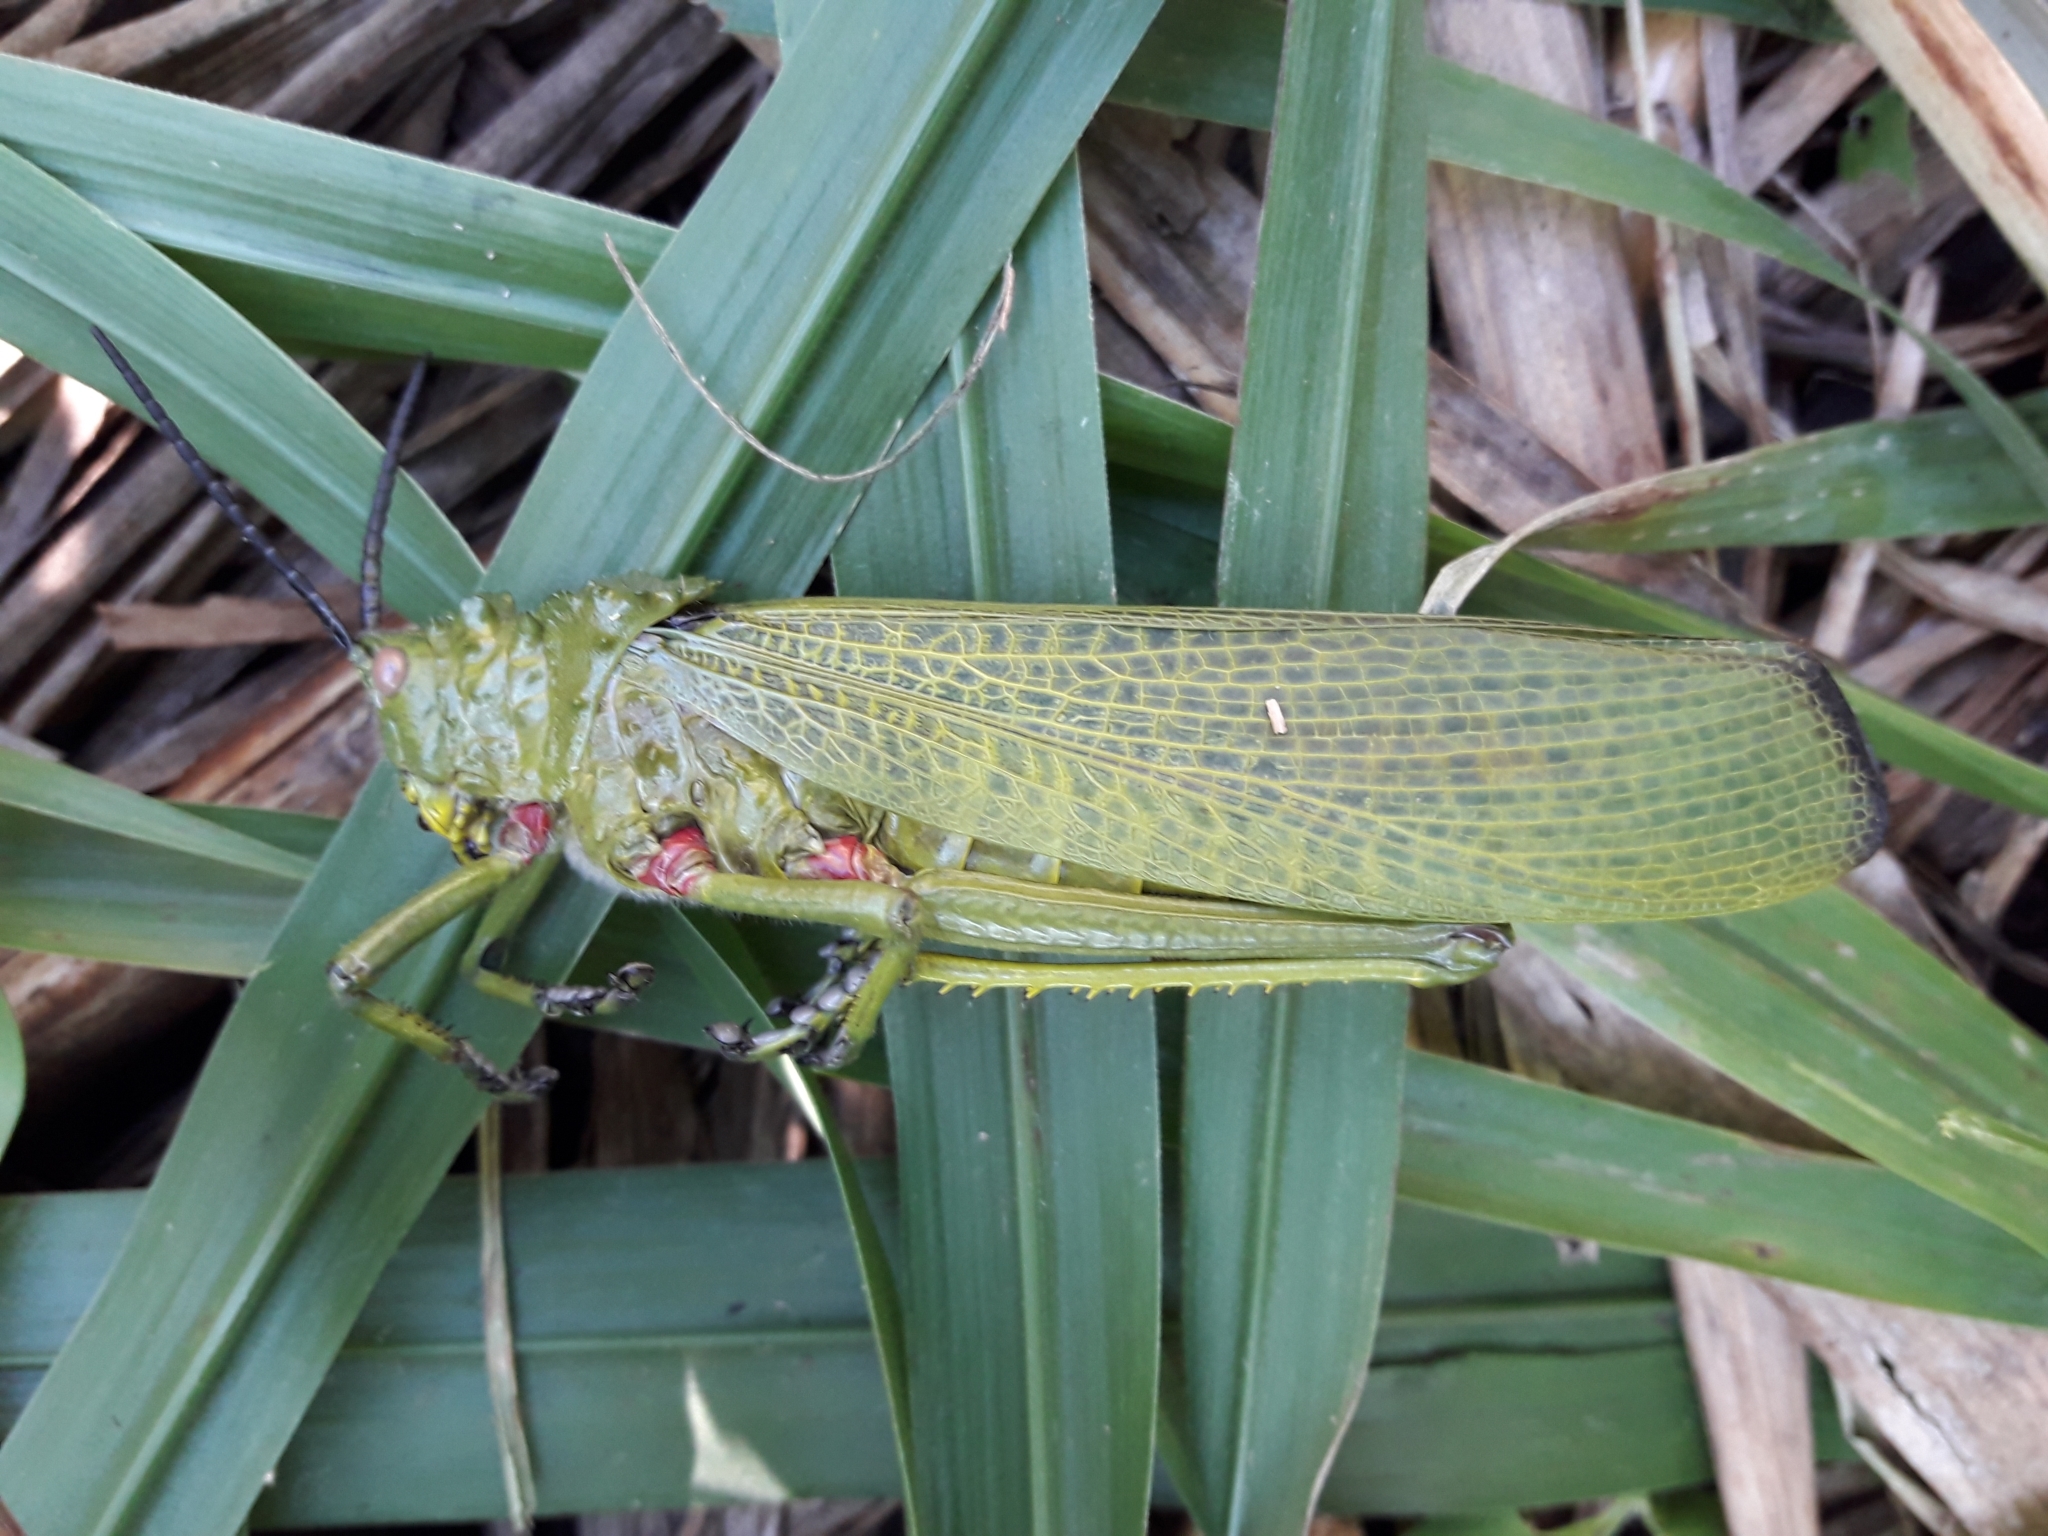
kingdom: Animalia
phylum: Arthropoda
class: Insecta
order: Orthoptera
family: Pyrgomorphidae
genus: Phymateus
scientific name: Phymateus viridipes
